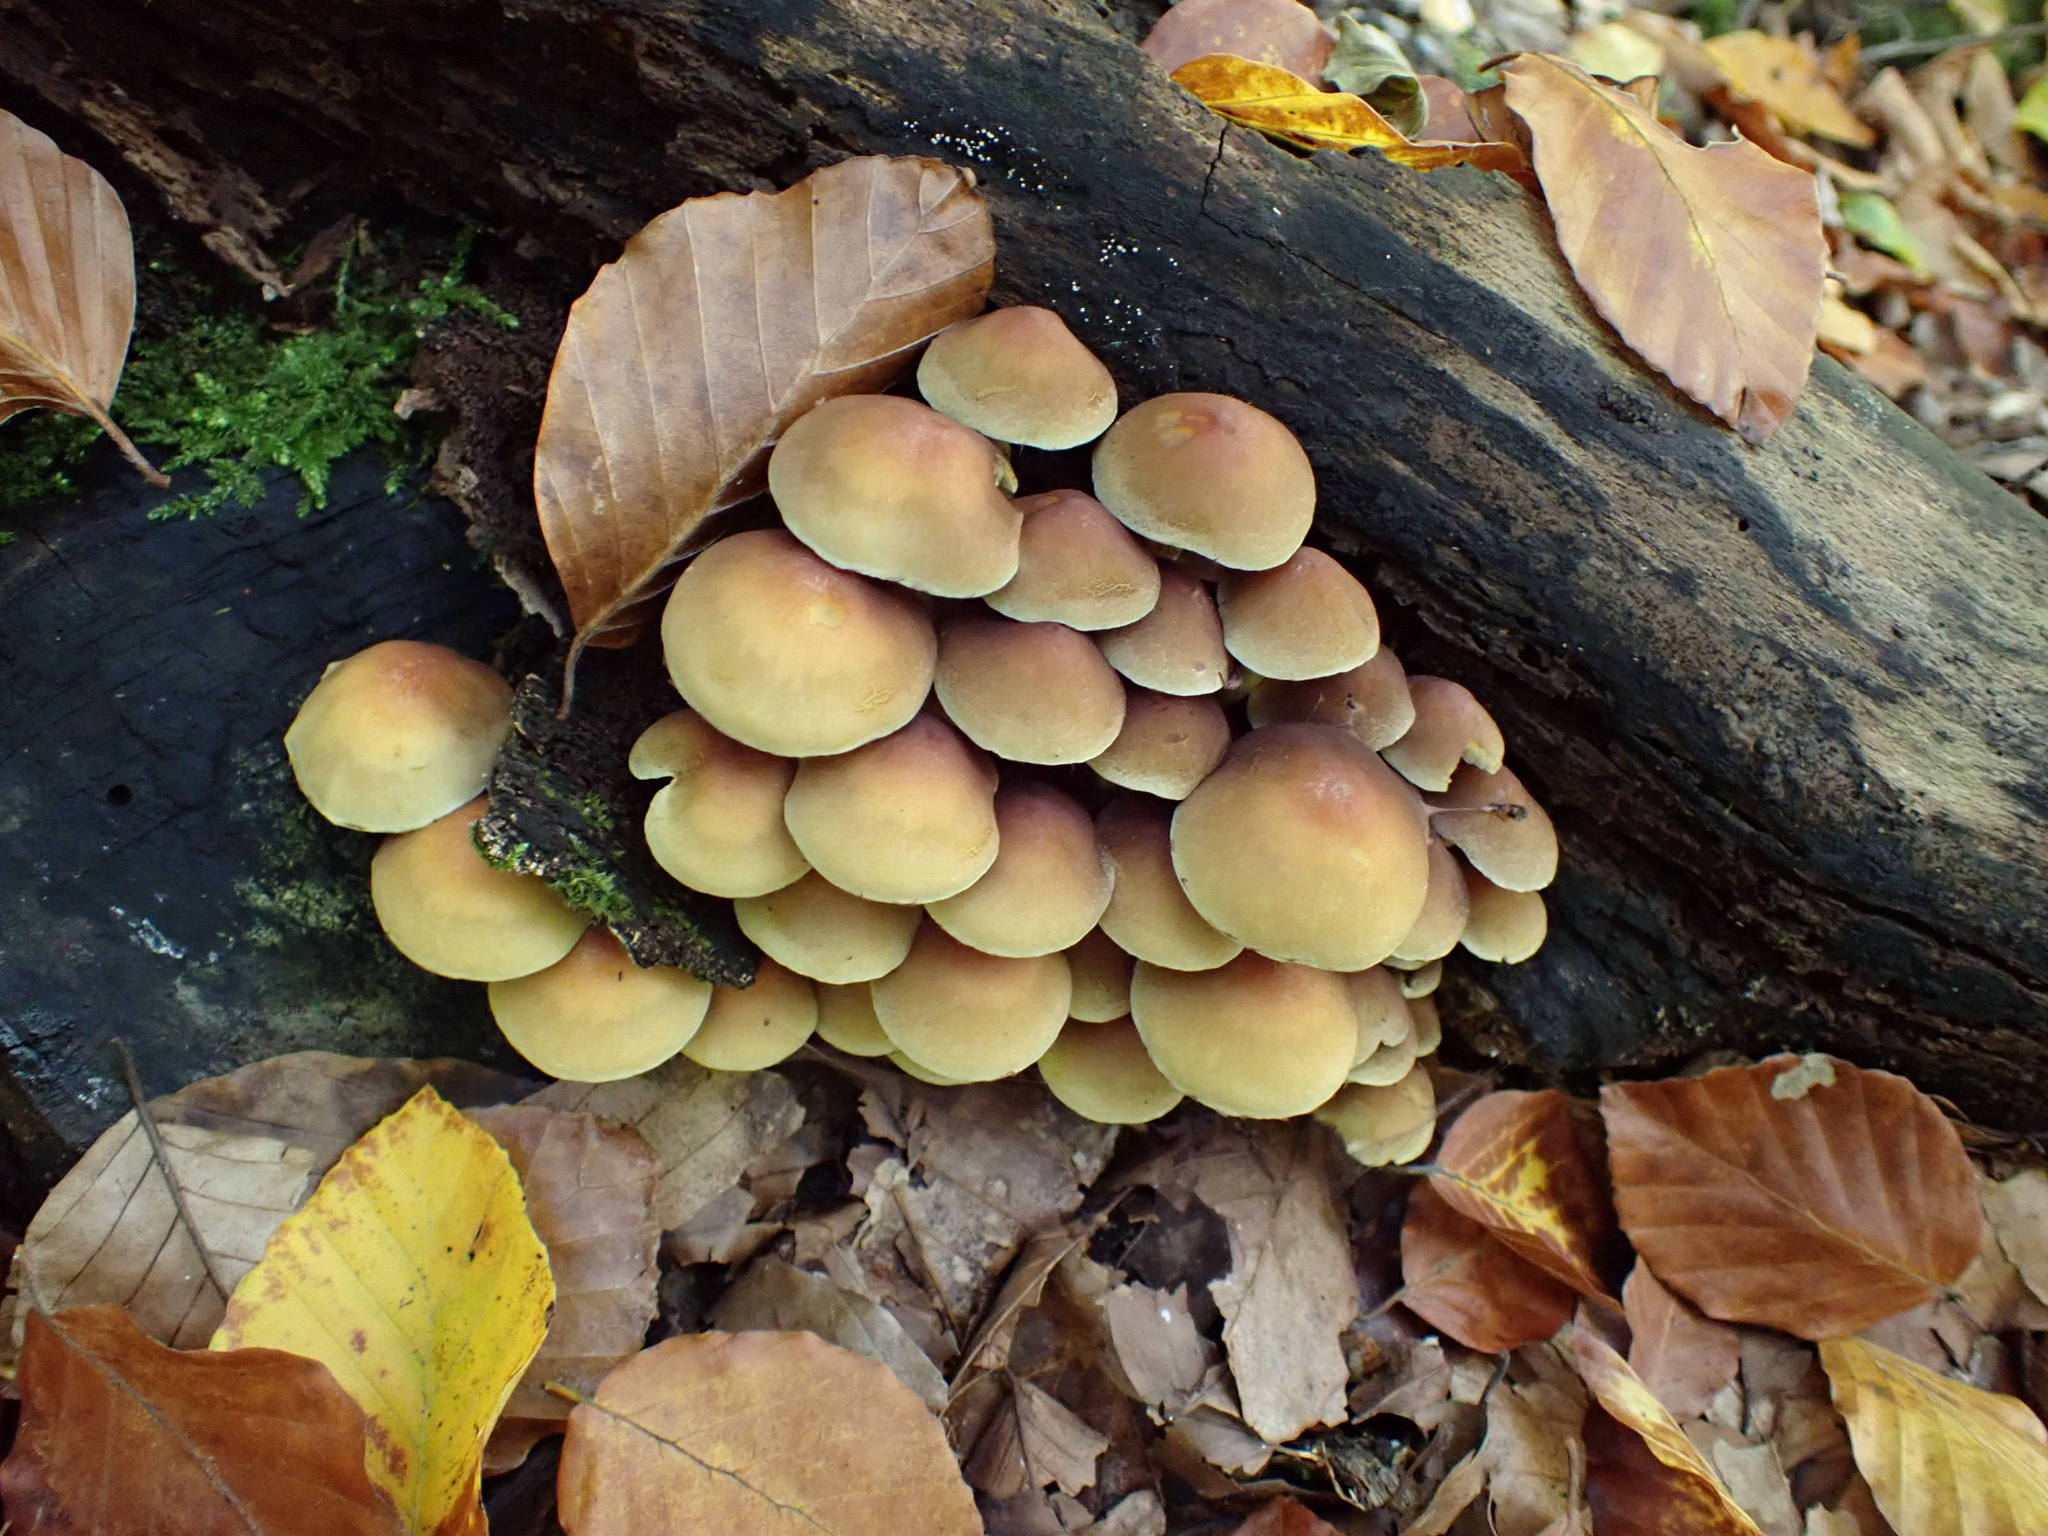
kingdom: Fungi
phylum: Basidiomycota
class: Agaricomycetes
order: Agaricales
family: Strophariaceae
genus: Hypholoma
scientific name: Hypholoma fasciculare
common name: Sulphur tuft
